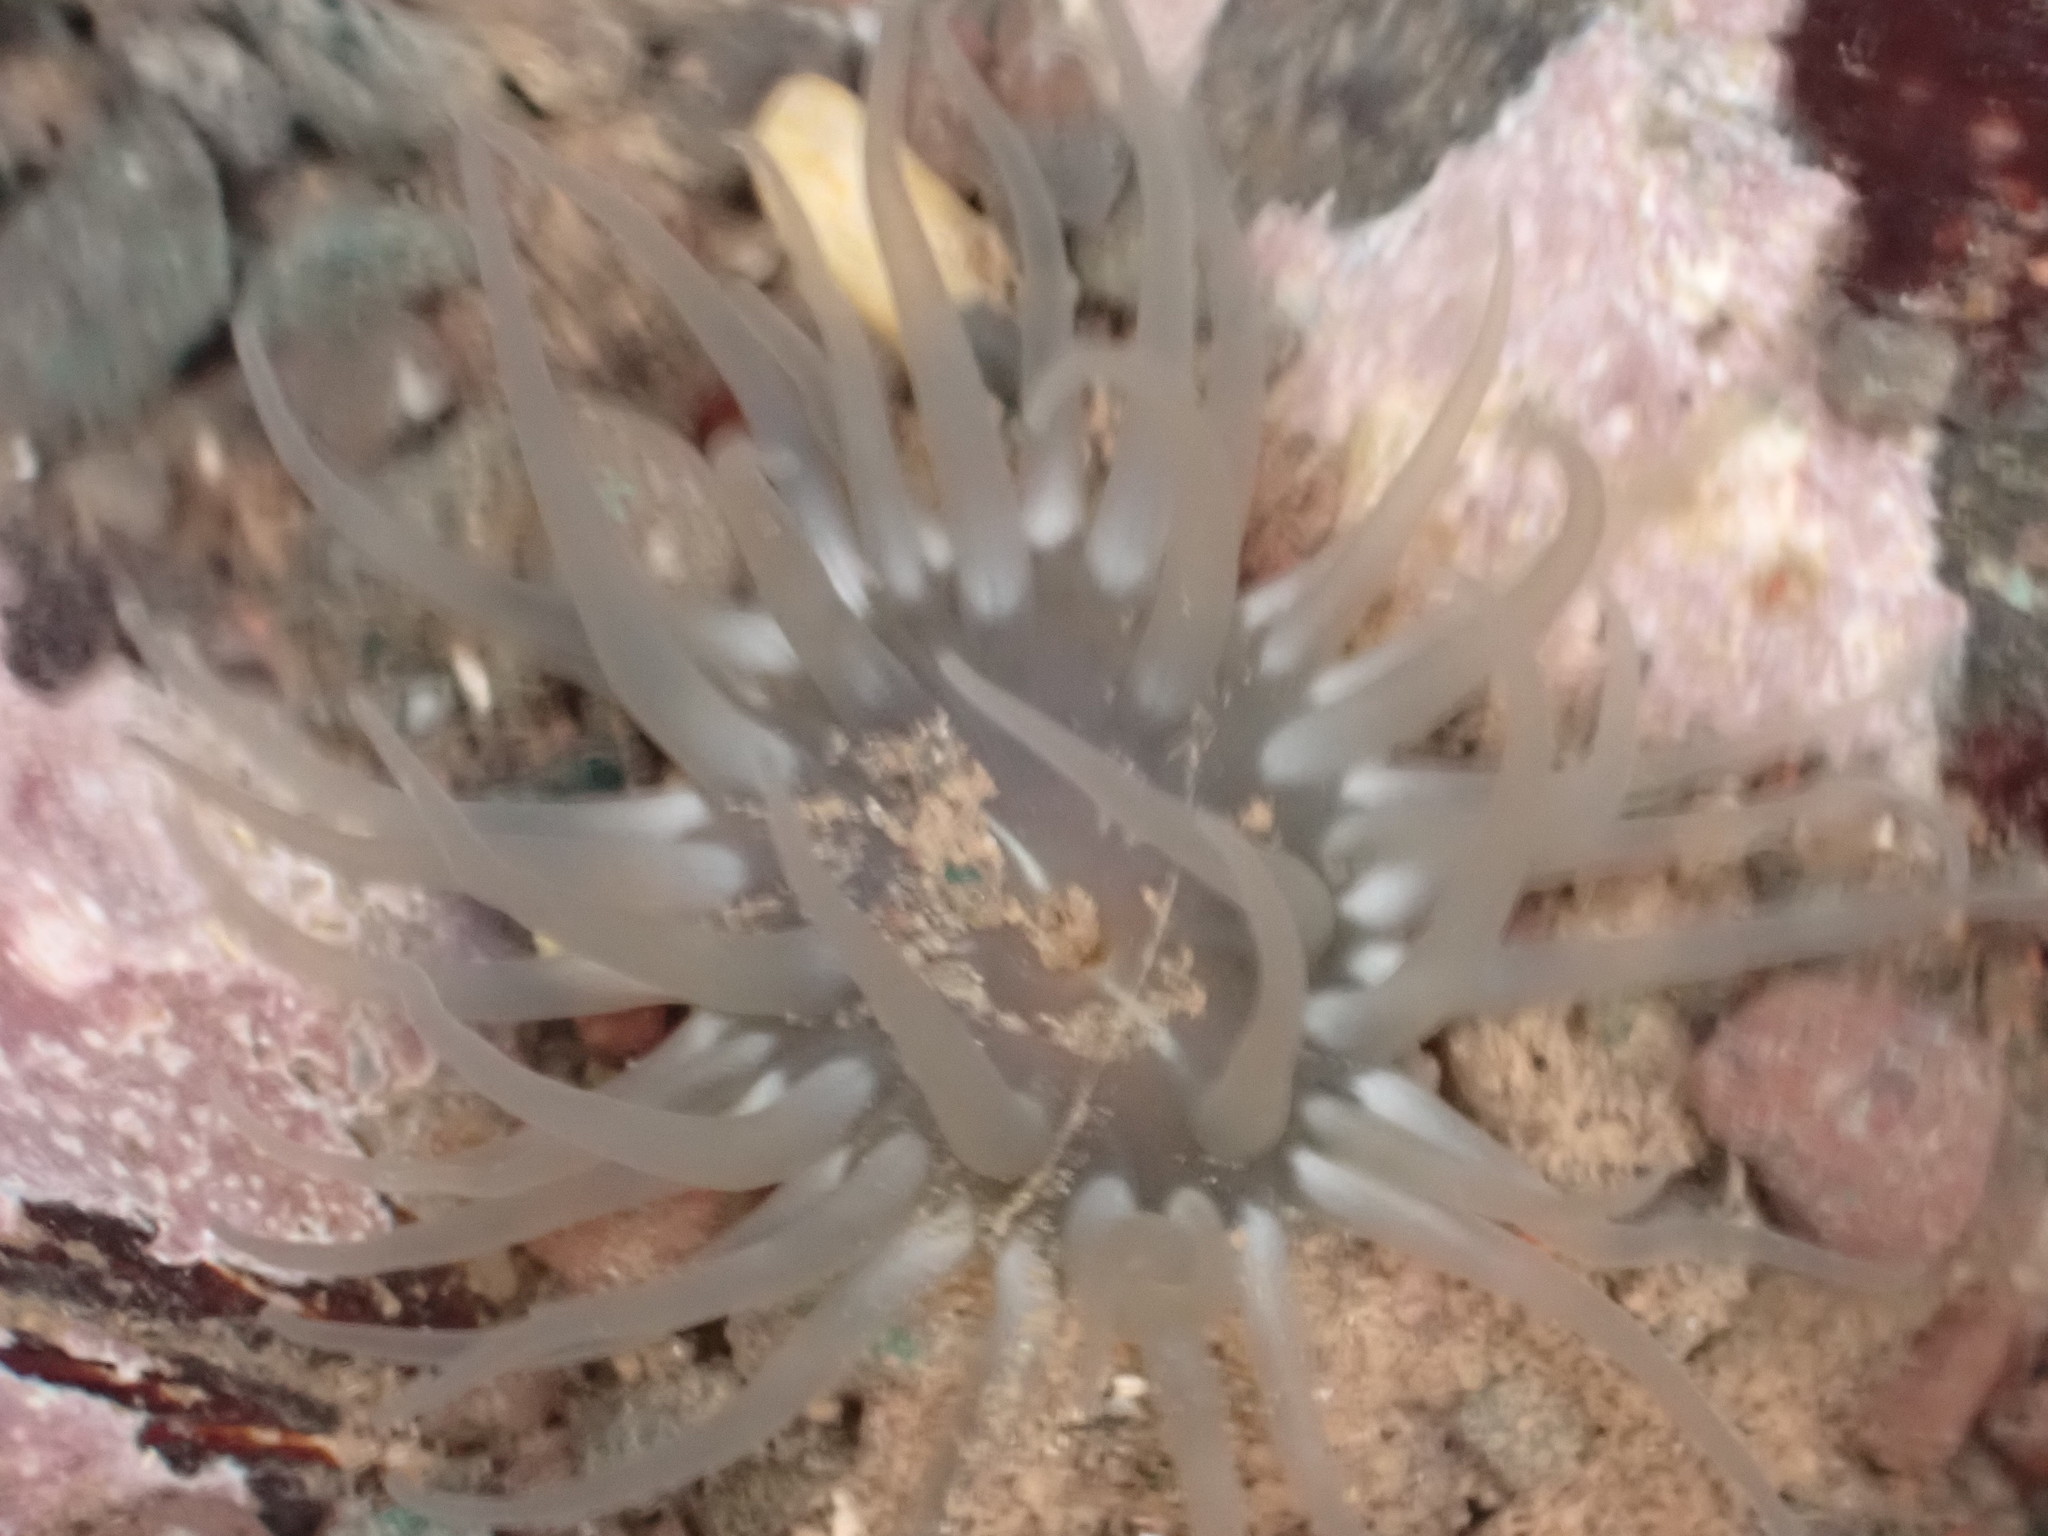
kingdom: Animalia
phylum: Cnidaria
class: Anthozoa
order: Actiniaria
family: Actiniidae
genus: Aulactinia
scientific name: Aulactinia stella
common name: Silver-spotted sea anemone
